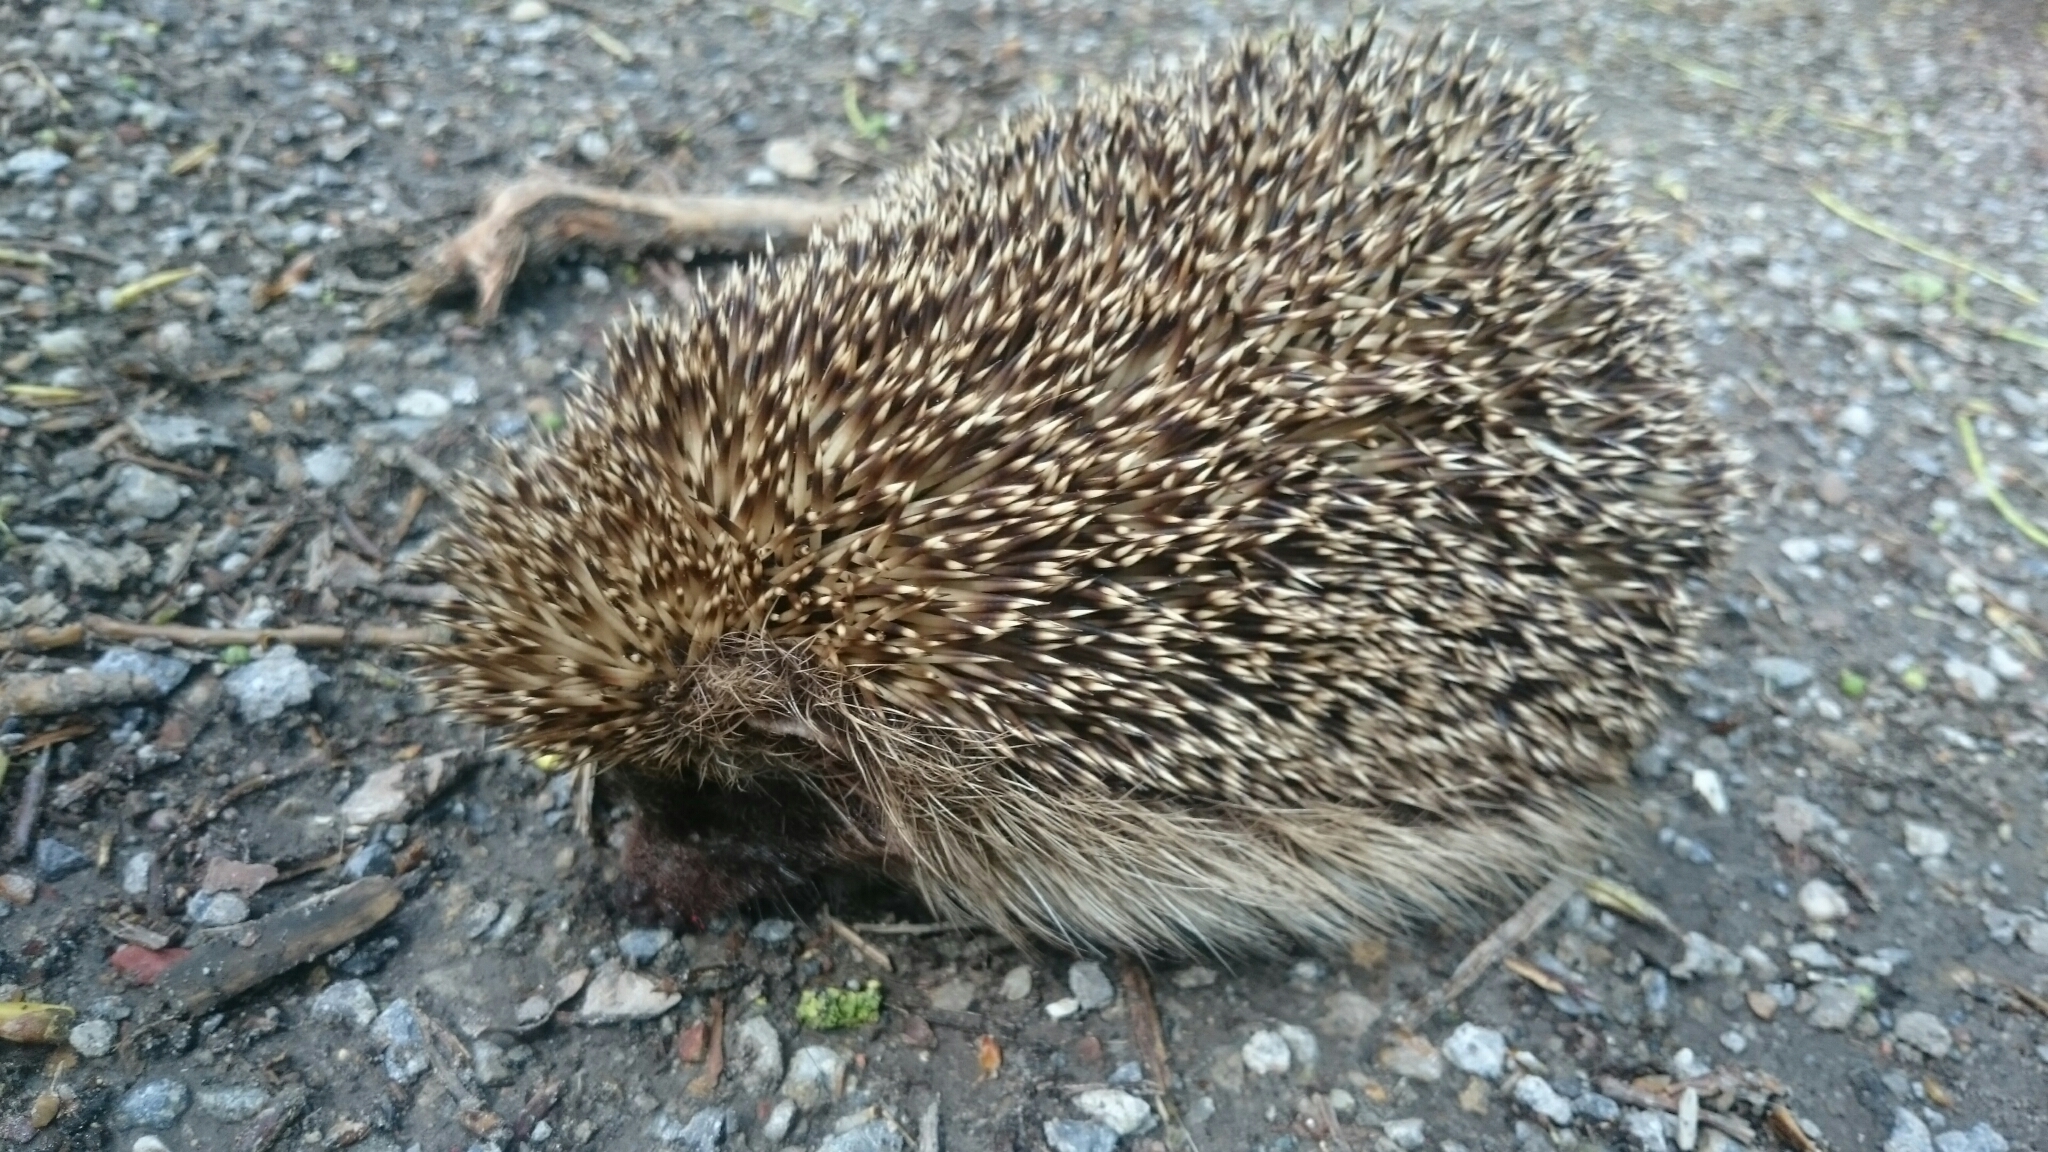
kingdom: Animalia
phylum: Chordata
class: Mammalia
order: Erinaceomorpha
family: Erinaceidae
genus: Erinaceus
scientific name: Erinaceus europaeus
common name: West european hedgehog
